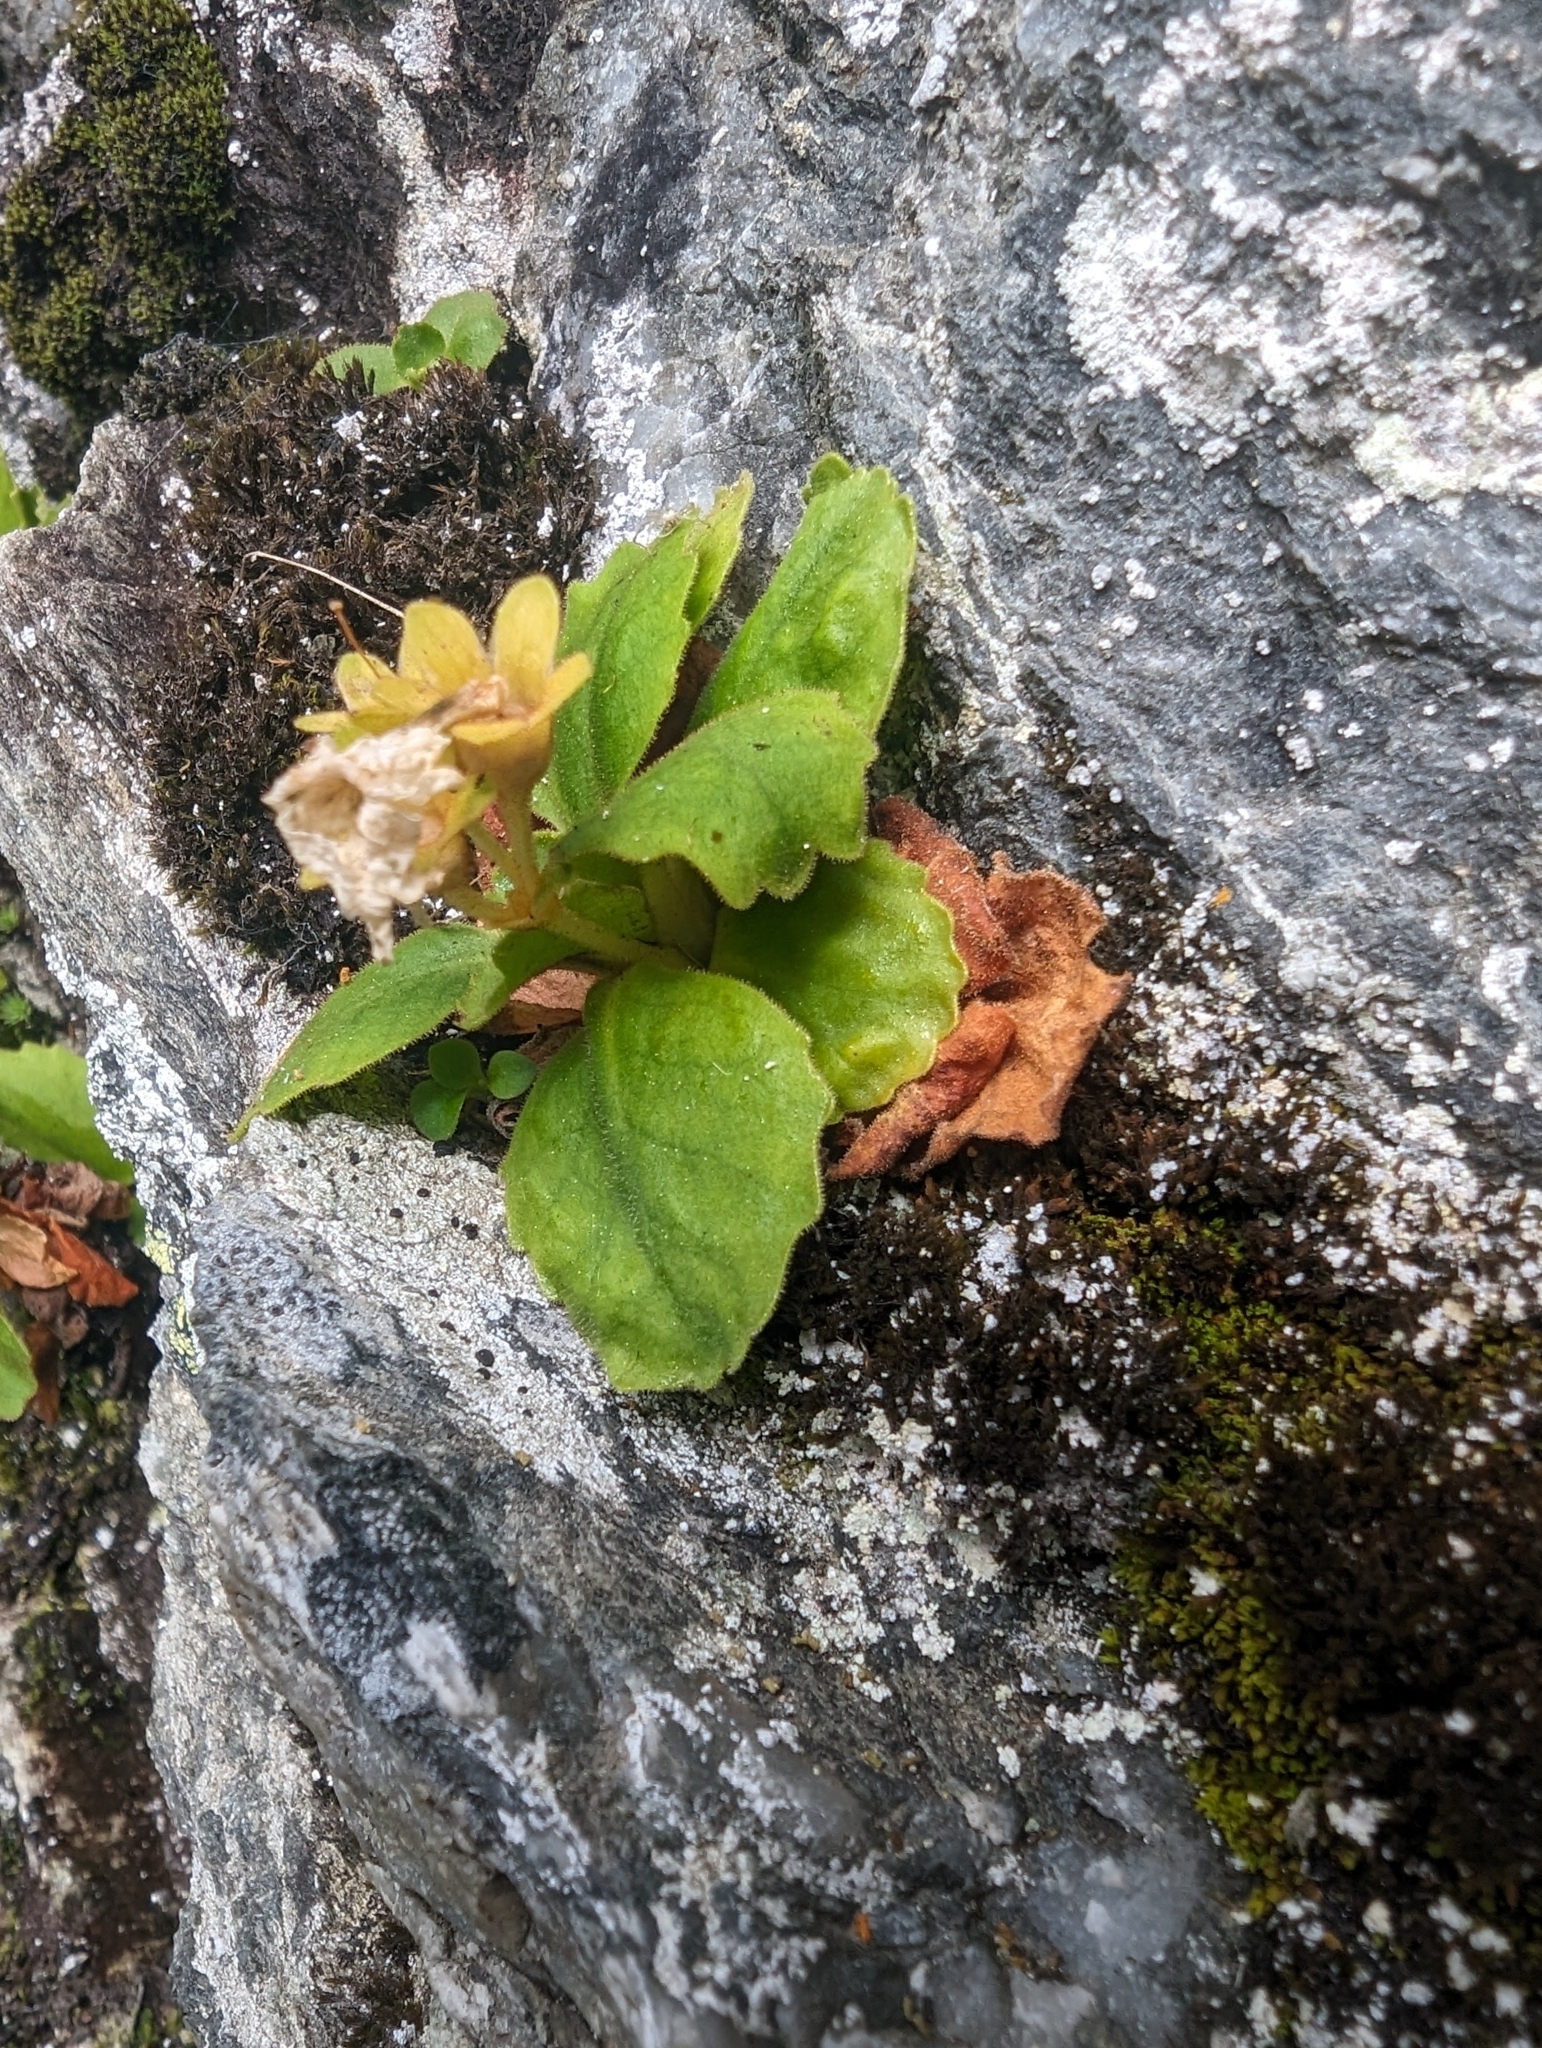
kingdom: Plantae
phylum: Tracheophyta
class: Magnoliopsida
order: Ericales
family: Primulaceae
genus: Primula
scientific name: Primula hirsuta
